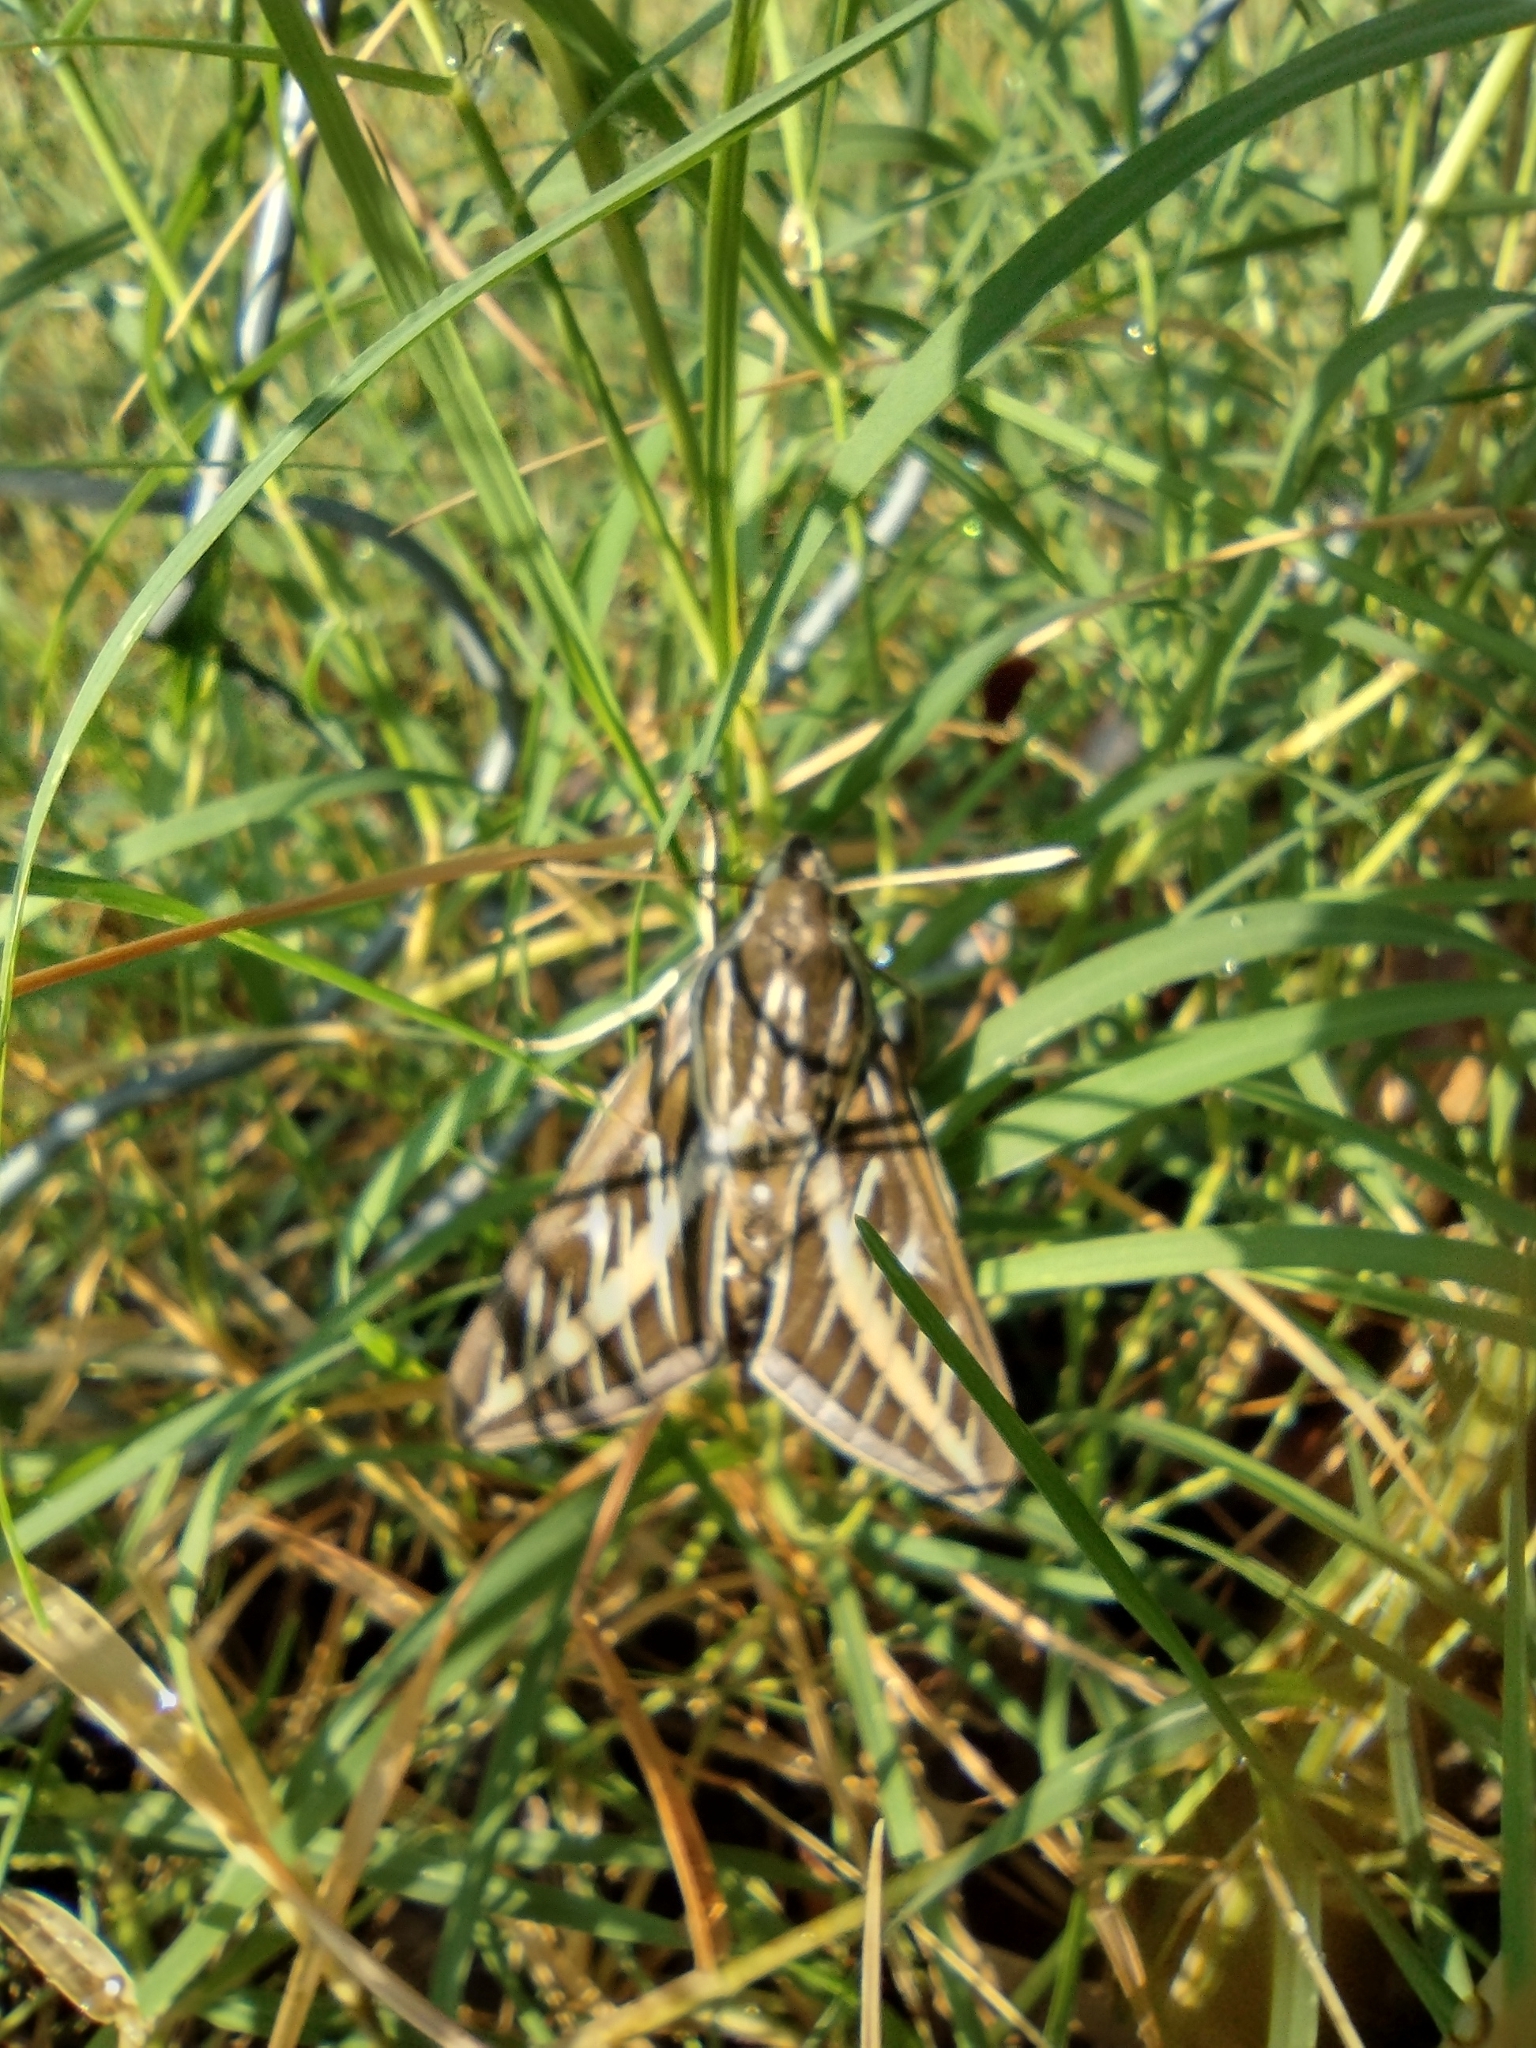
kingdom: Animalia
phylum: Arthropoda
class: Insecta
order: Lepidoptera
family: Sphingidae
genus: Hyles
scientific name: Hyles lineata
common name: White-lined sphinx
